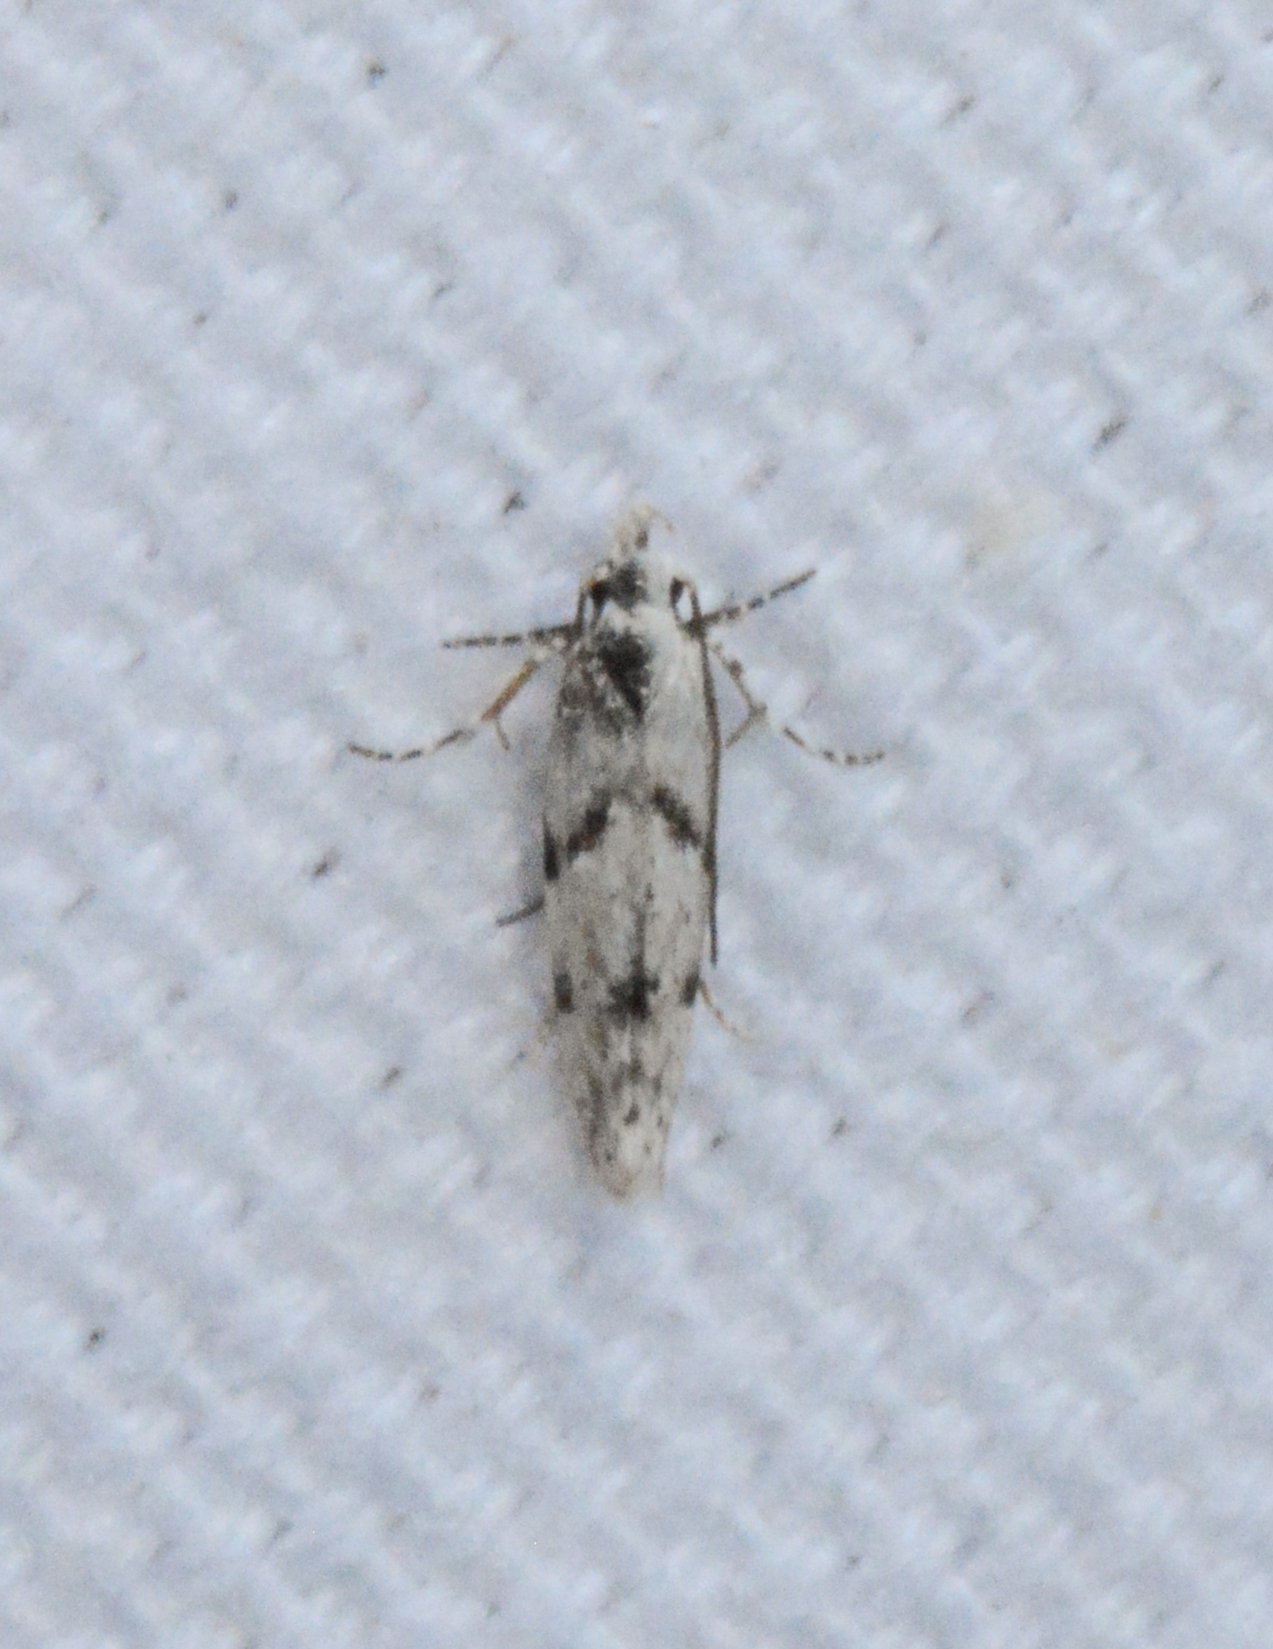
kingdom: Animalia
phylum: Arthropoda
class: Insecta
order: Lepidoptera
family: Gelechiidae
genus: Arogalea
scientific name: Arogalea cristifasciella
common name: White stripe-backed moth
